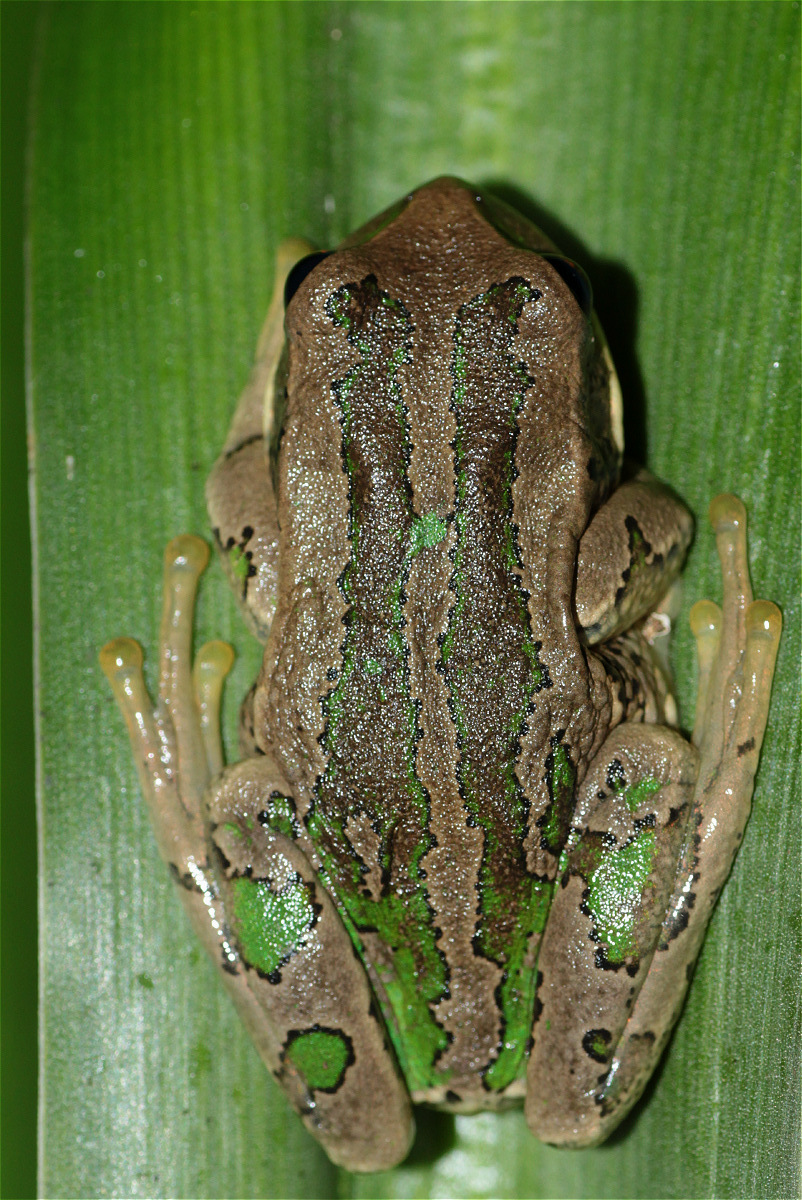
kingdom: Animalia
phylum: Chordata
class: Amphibia
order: Anura
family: Hemiphractidae
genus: Gastrotheca
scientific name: Gastrotheca cuencana
